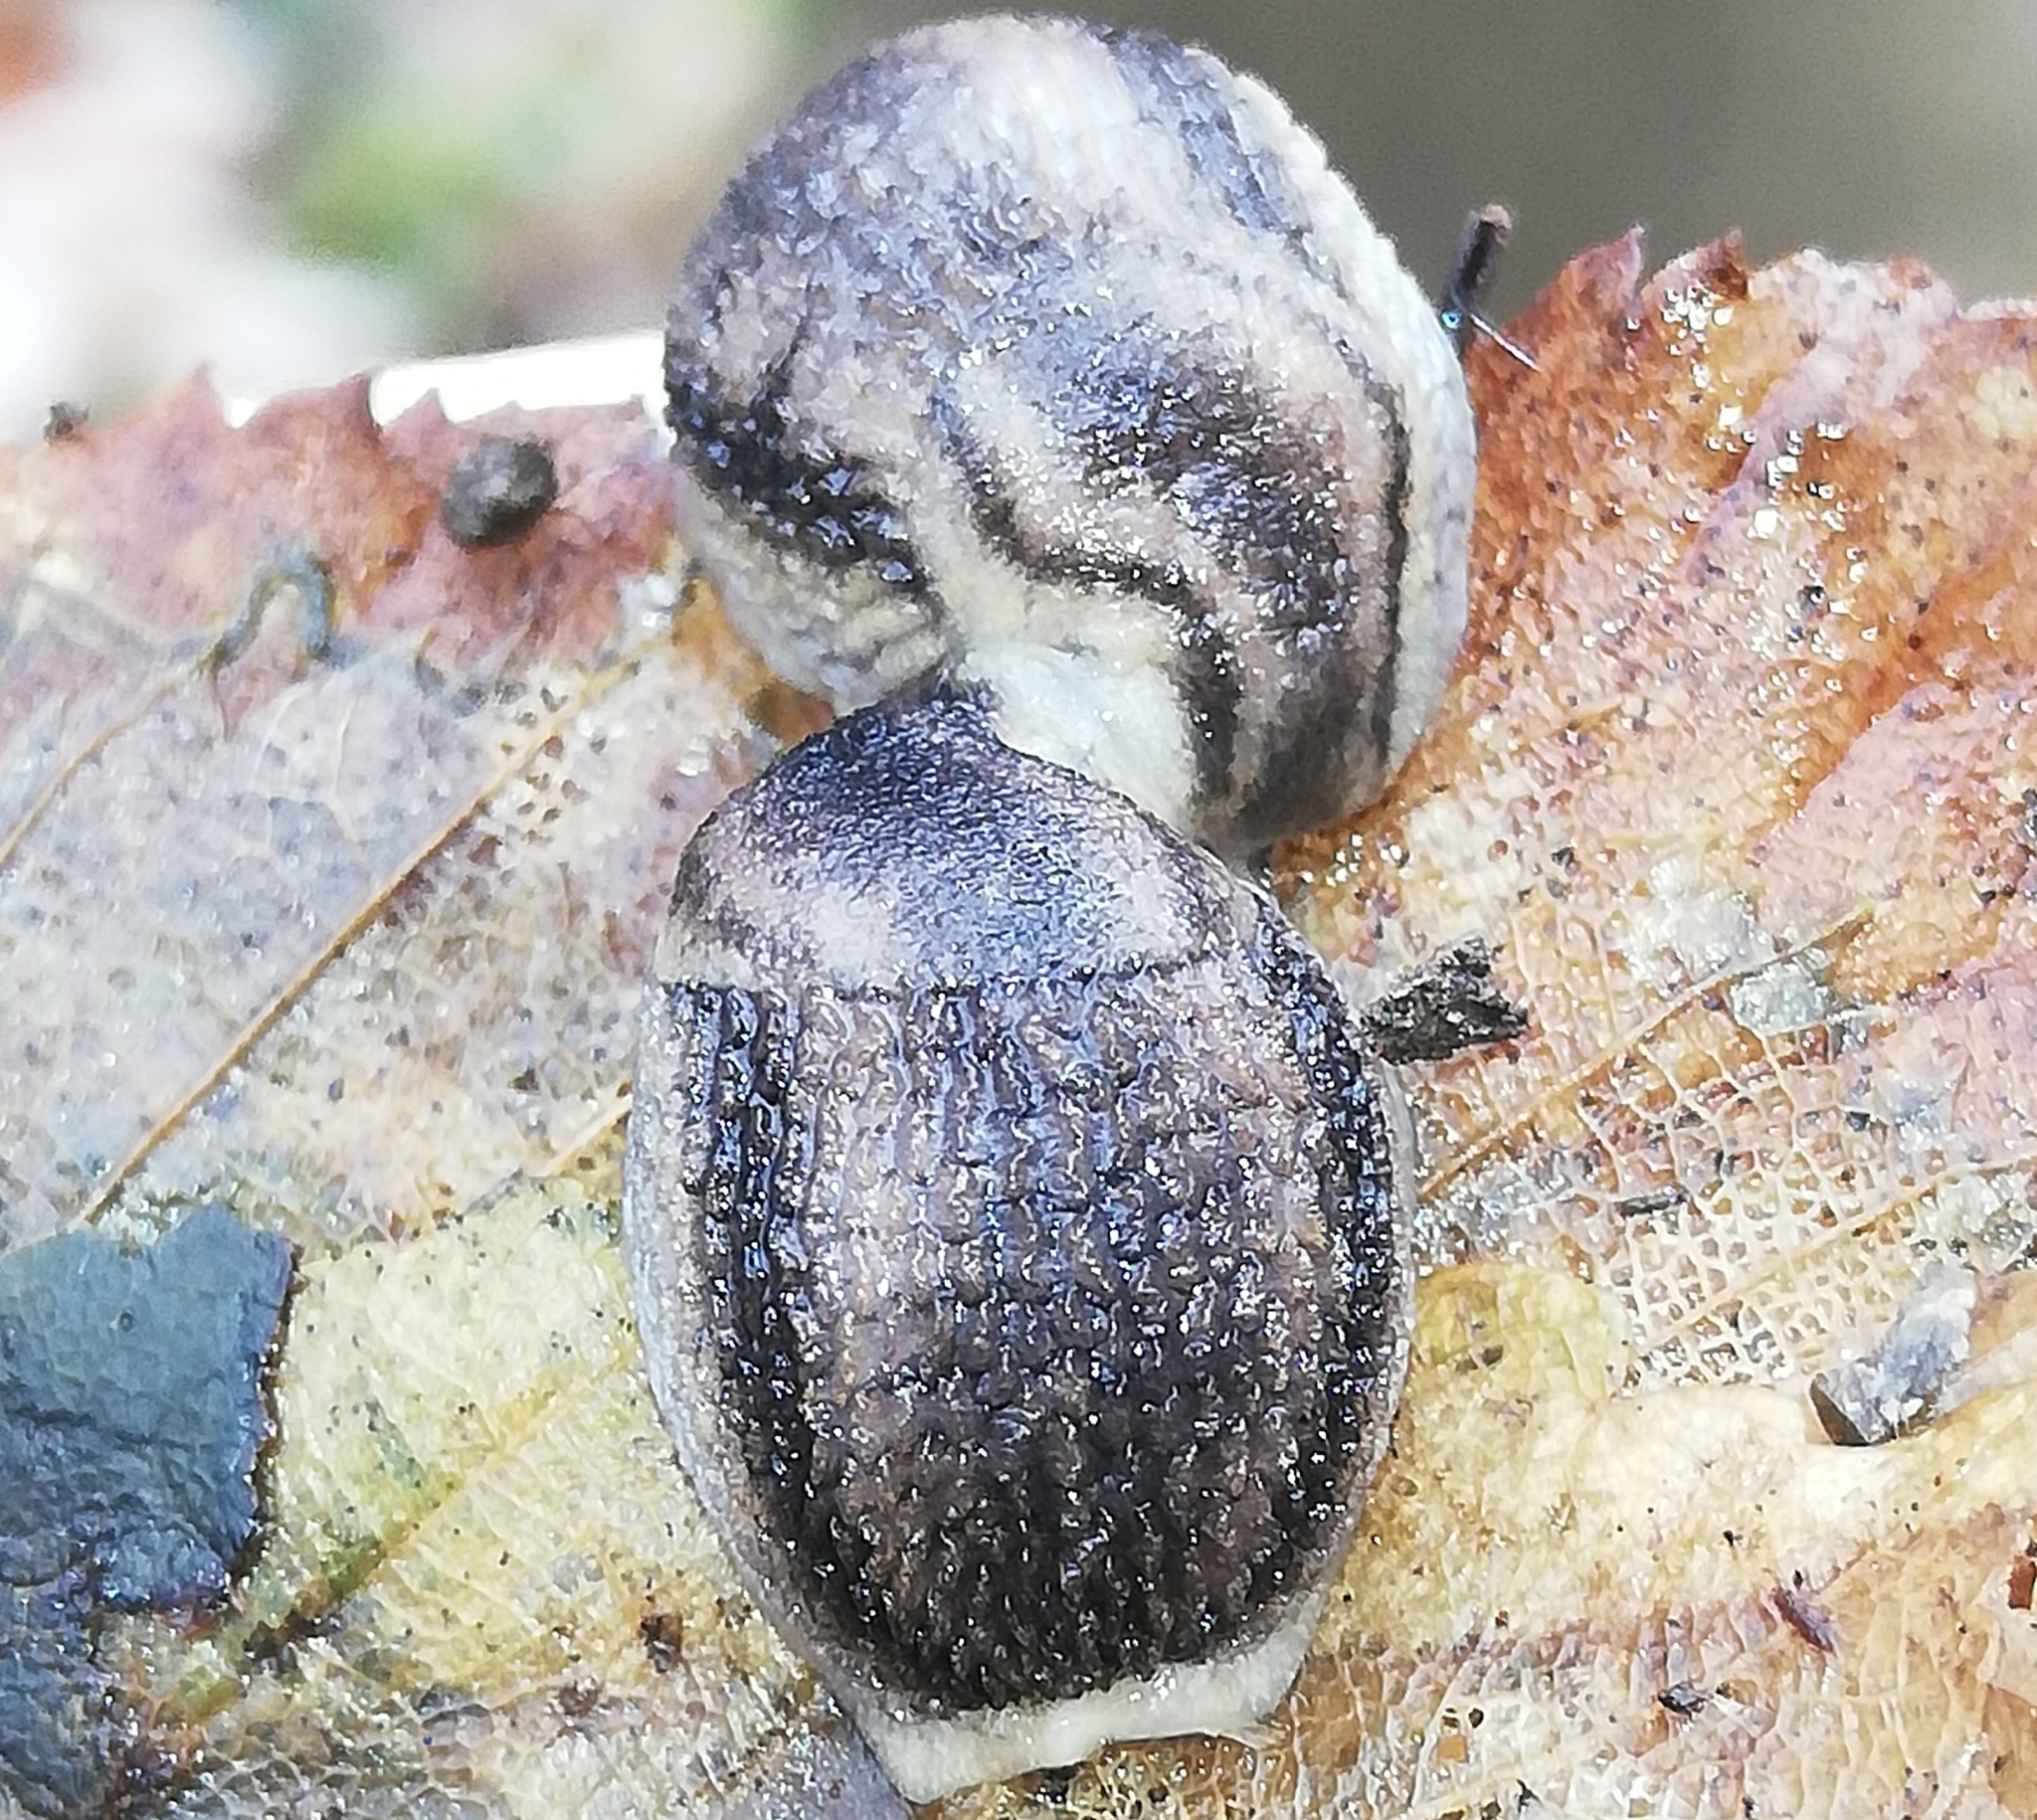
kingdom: Animalia
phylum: Mollusca
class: Gastropoda
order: Stylommatophora
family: Arionidae
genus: Arion
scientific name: Arion fasciatus
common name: Orange-banded arion
